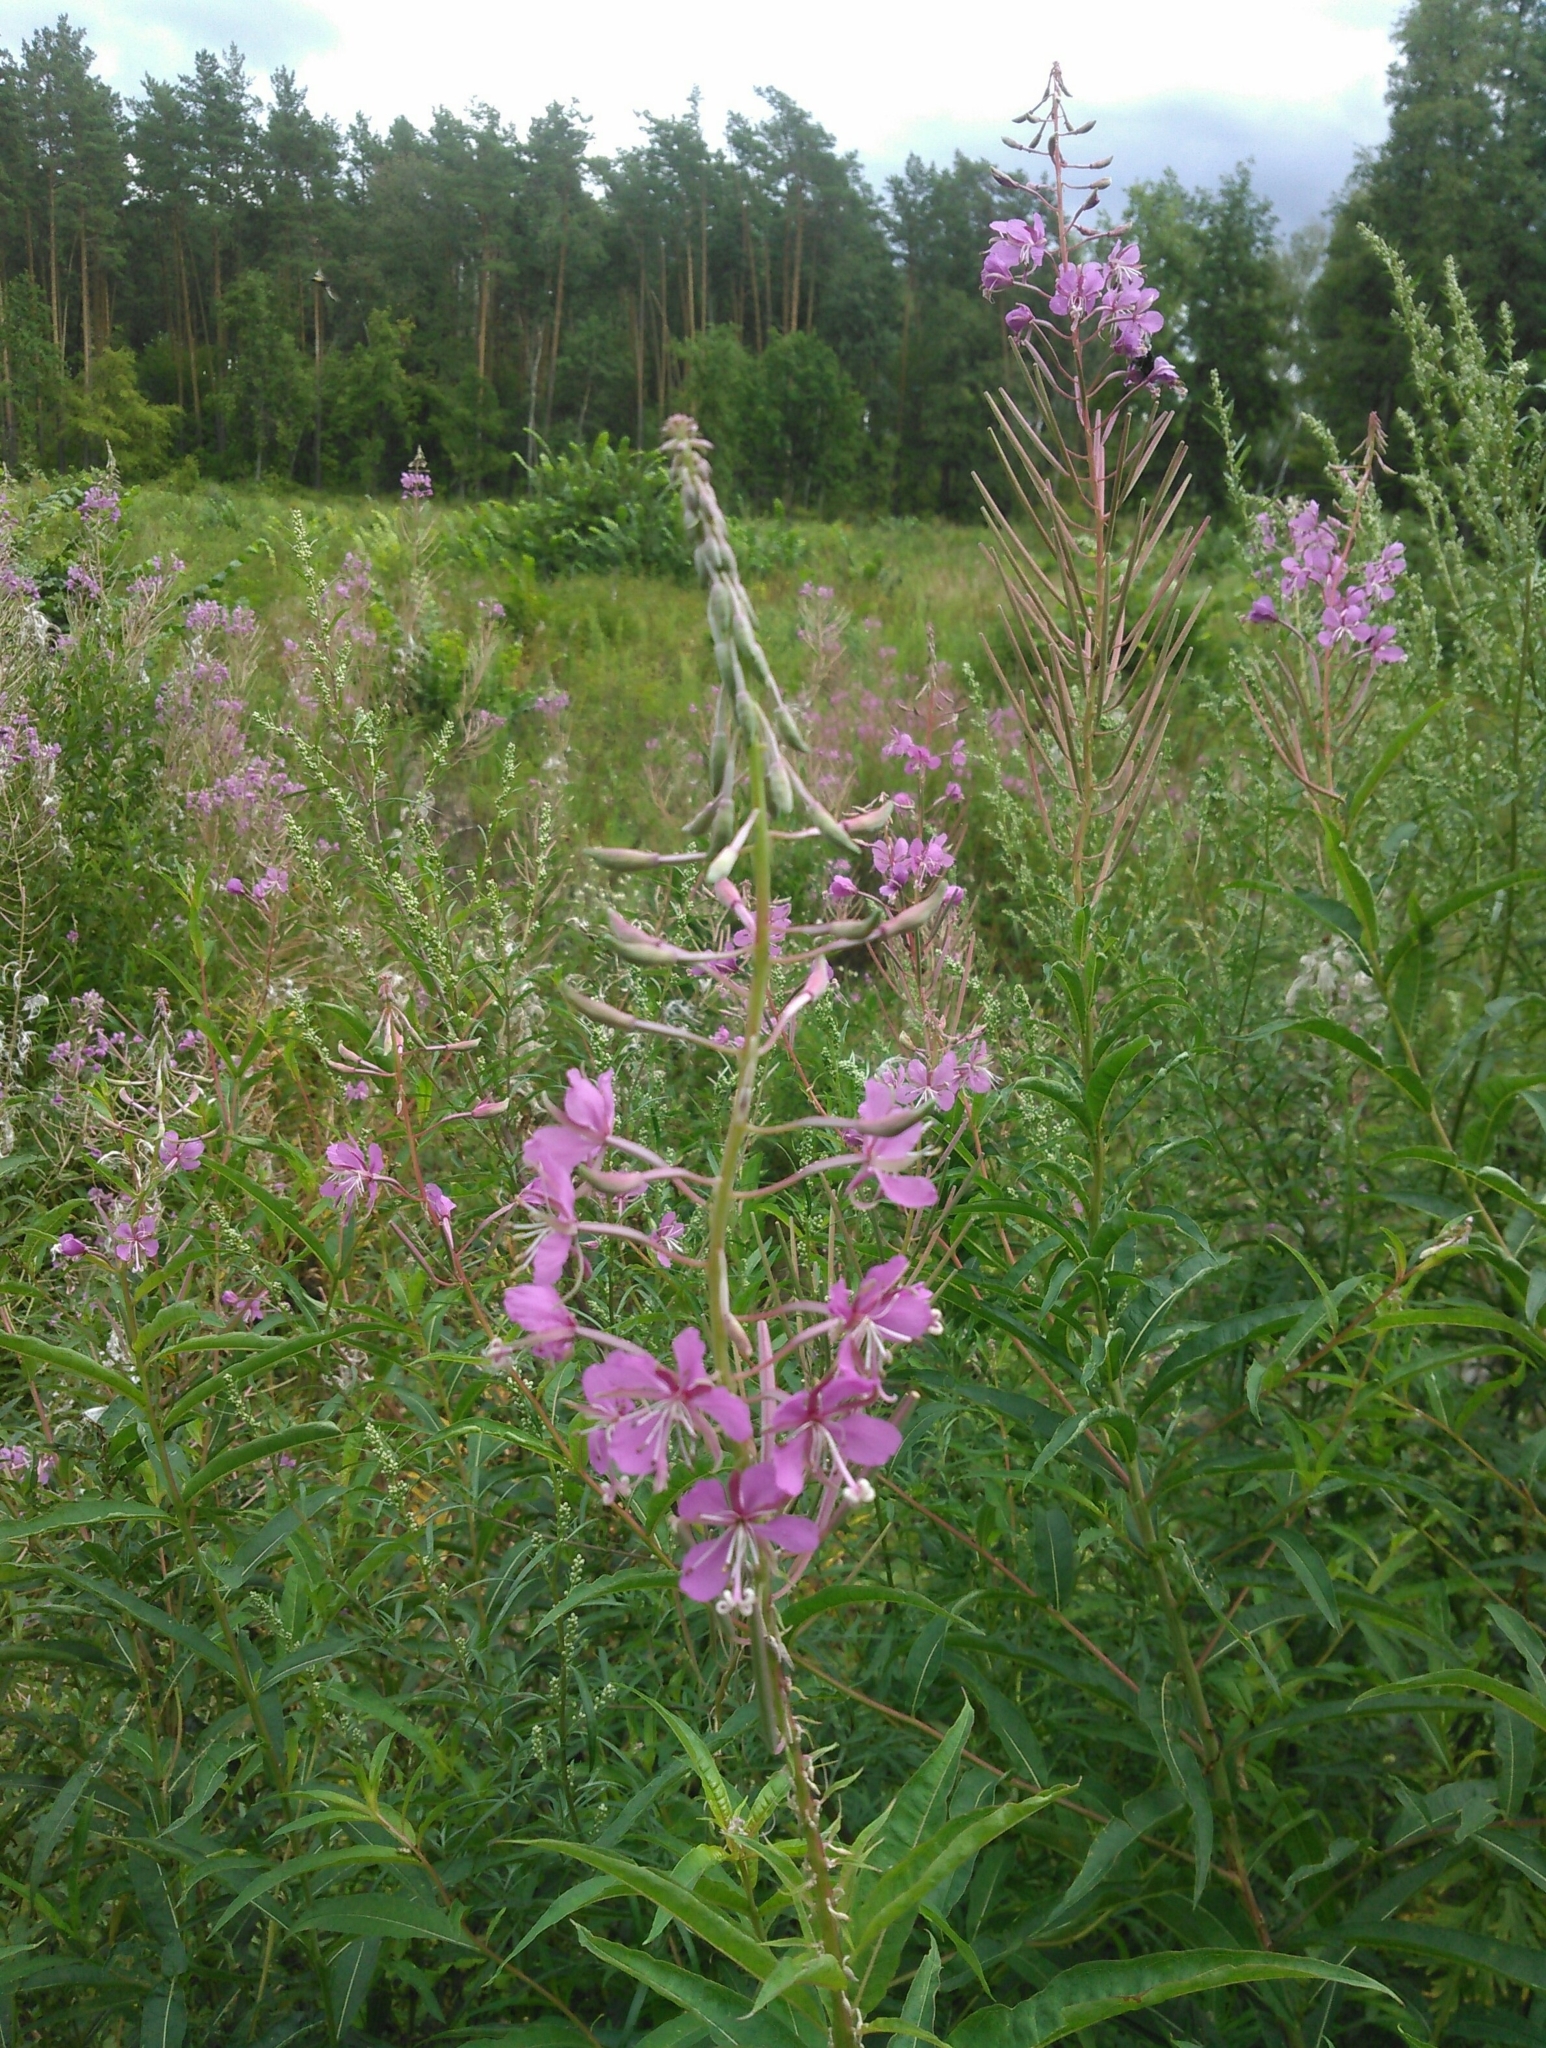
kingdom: Plantae
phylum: Tracheophyta
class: Magnoliopsida
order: Myrtales
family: Onagraceae
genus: Chamaenerion
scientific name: Chamaenerion angustifolium
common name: Fireweed
